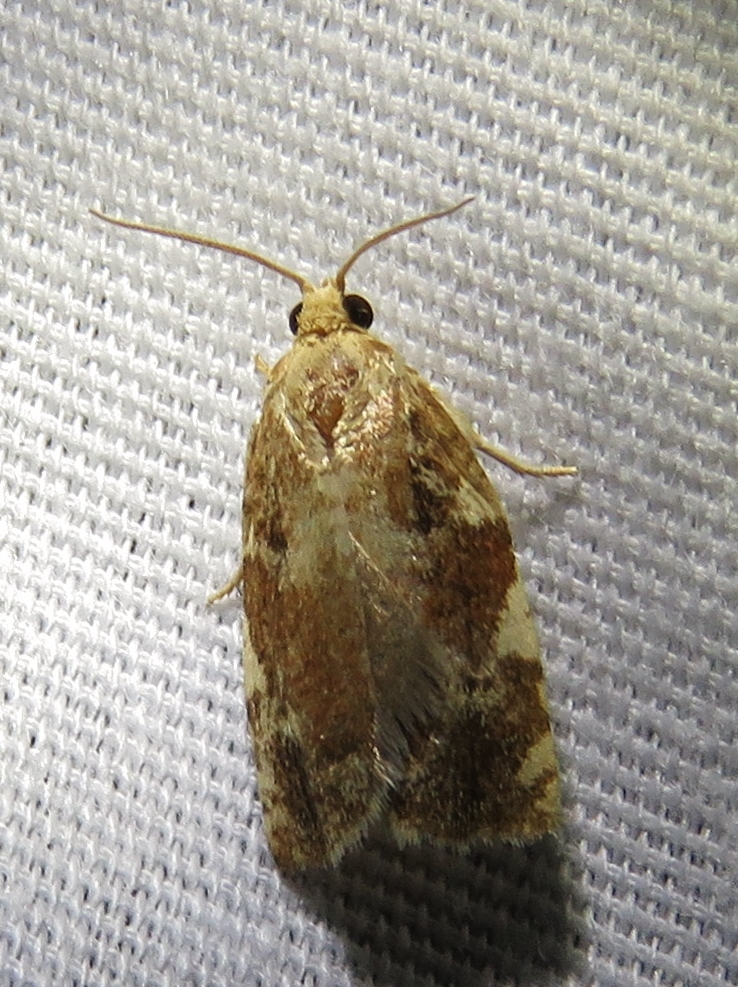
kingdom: Animalia
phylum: Arthropoda
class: Insecta
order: Lepidoptera
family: Tortricidae
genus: Archips
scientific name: Archips semiferanus
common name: Oak leafroller
